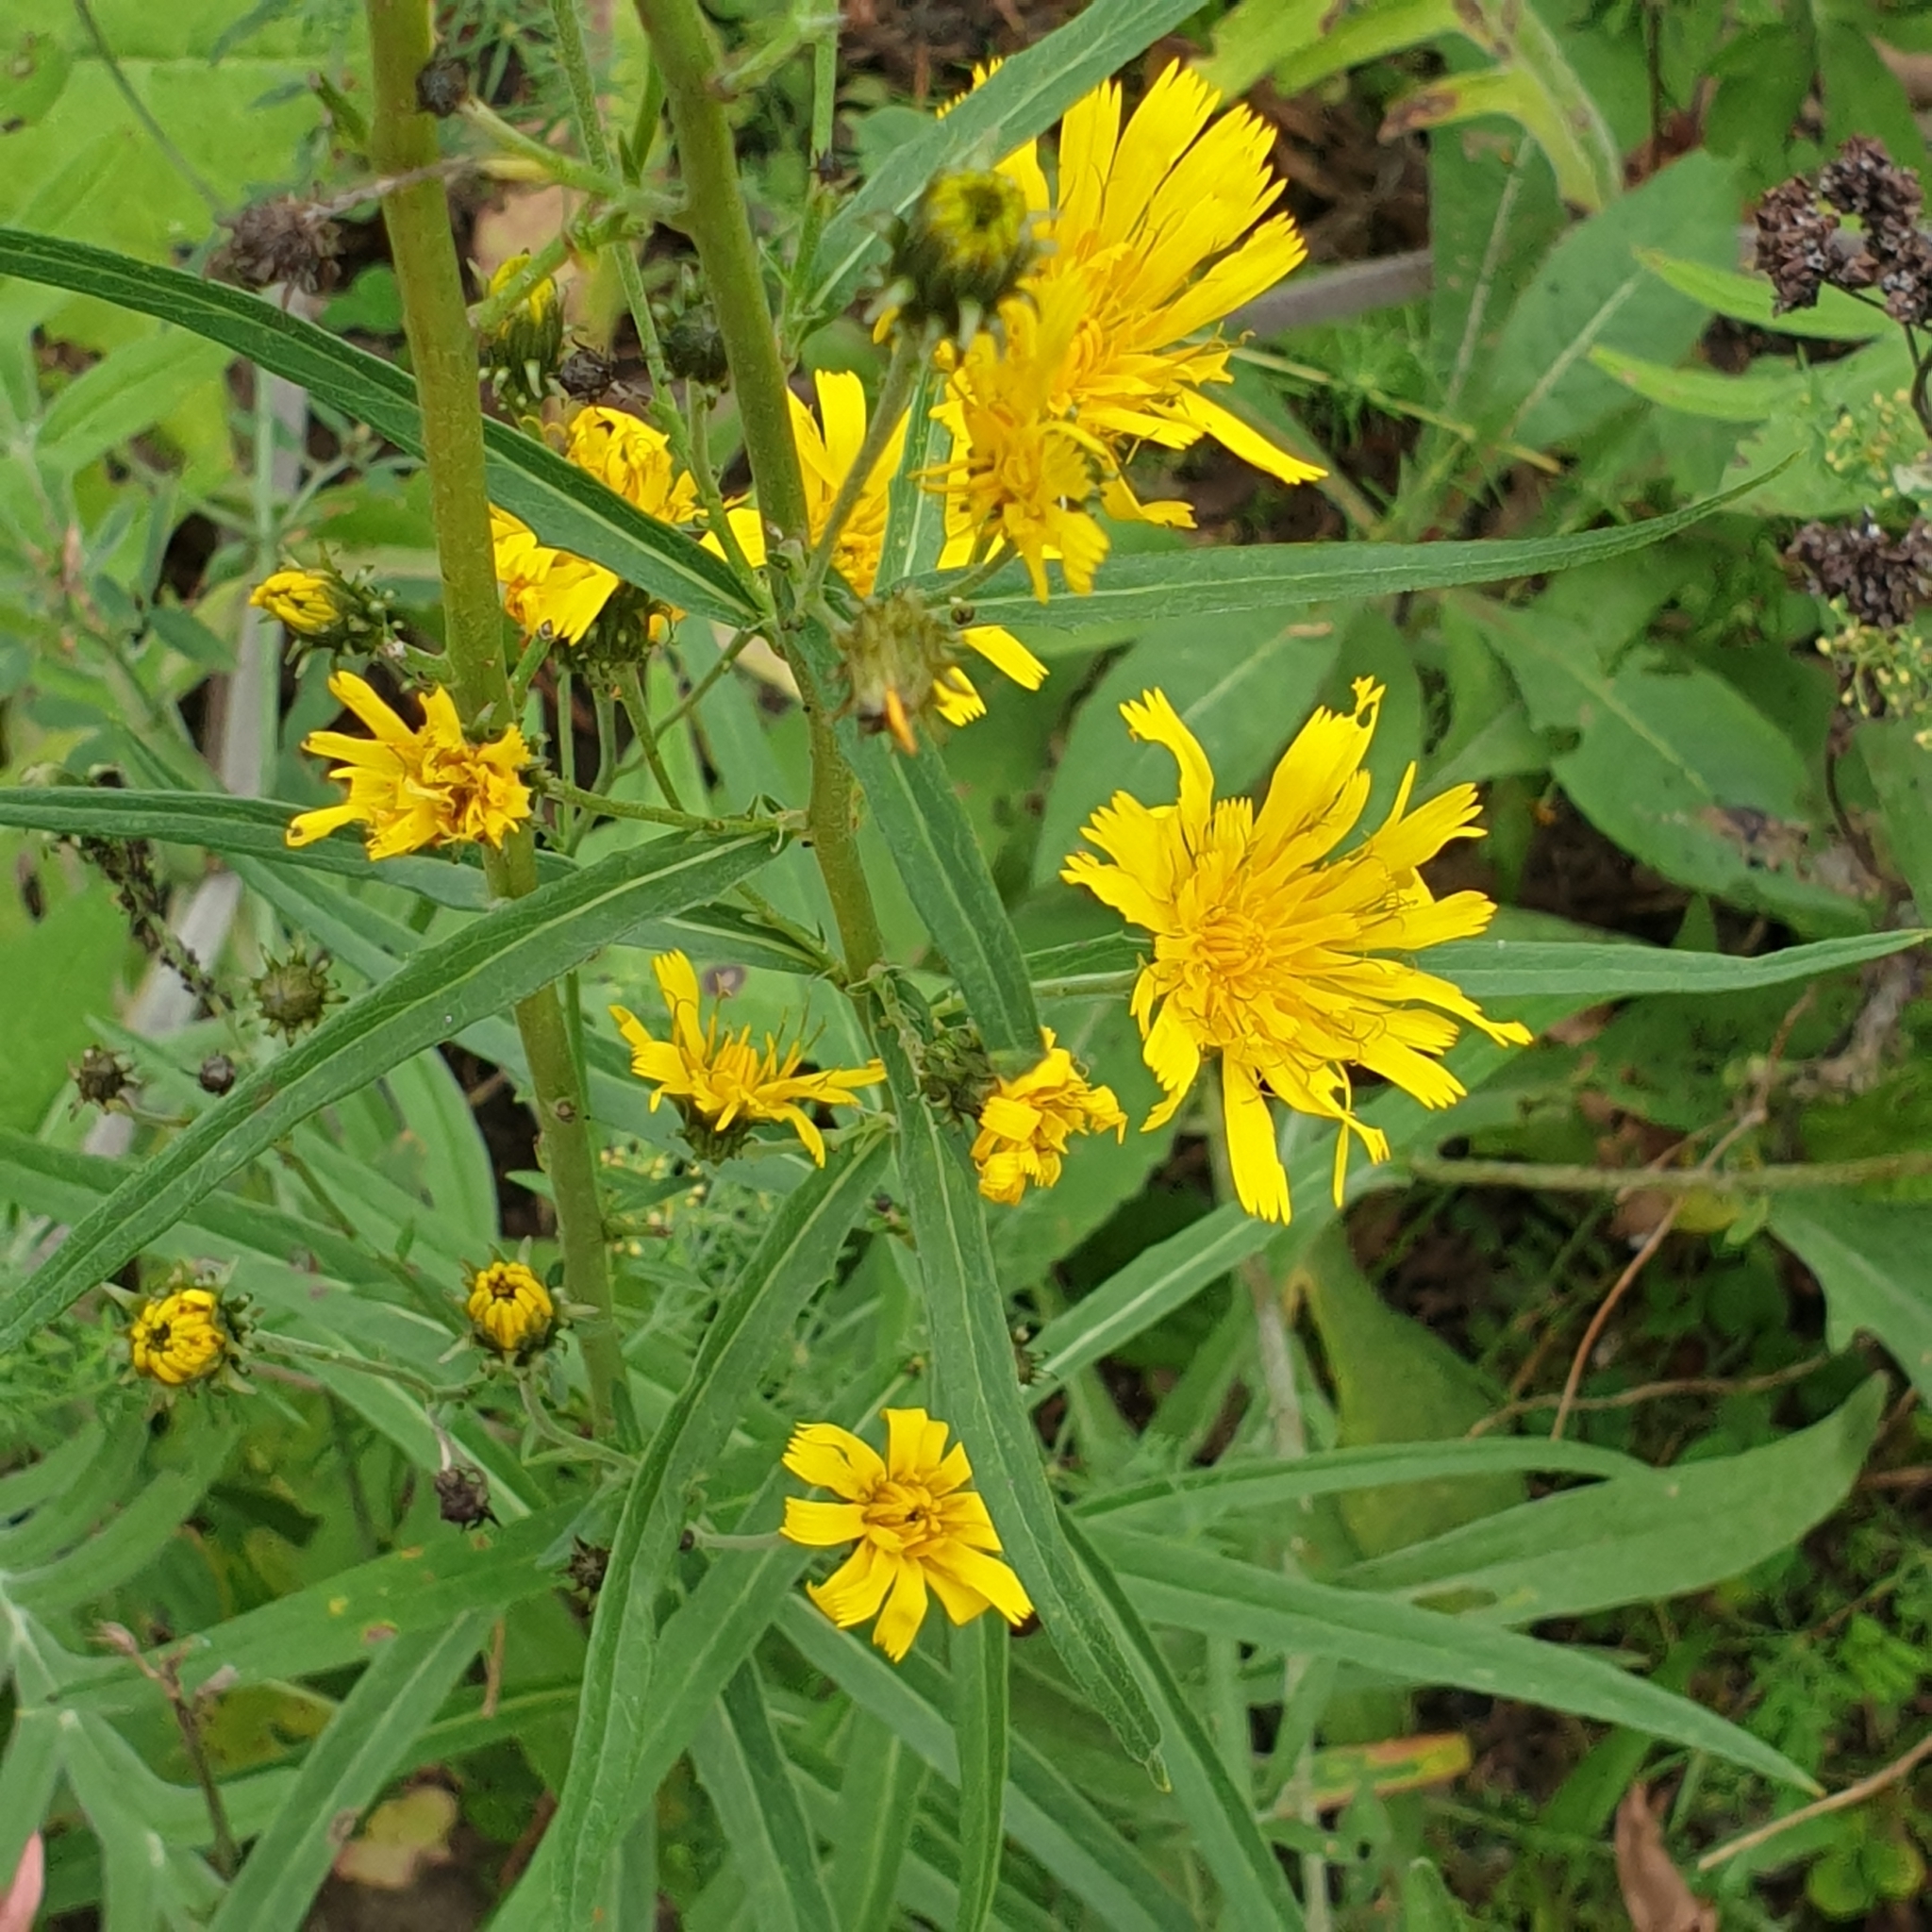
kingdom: Plantae
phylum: Tracheophyta
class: Magnoliopsida
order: Asterales
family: Asteraceae
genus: Hieracium
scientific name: Hieracium umbellatum
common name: Northern hawkweed
